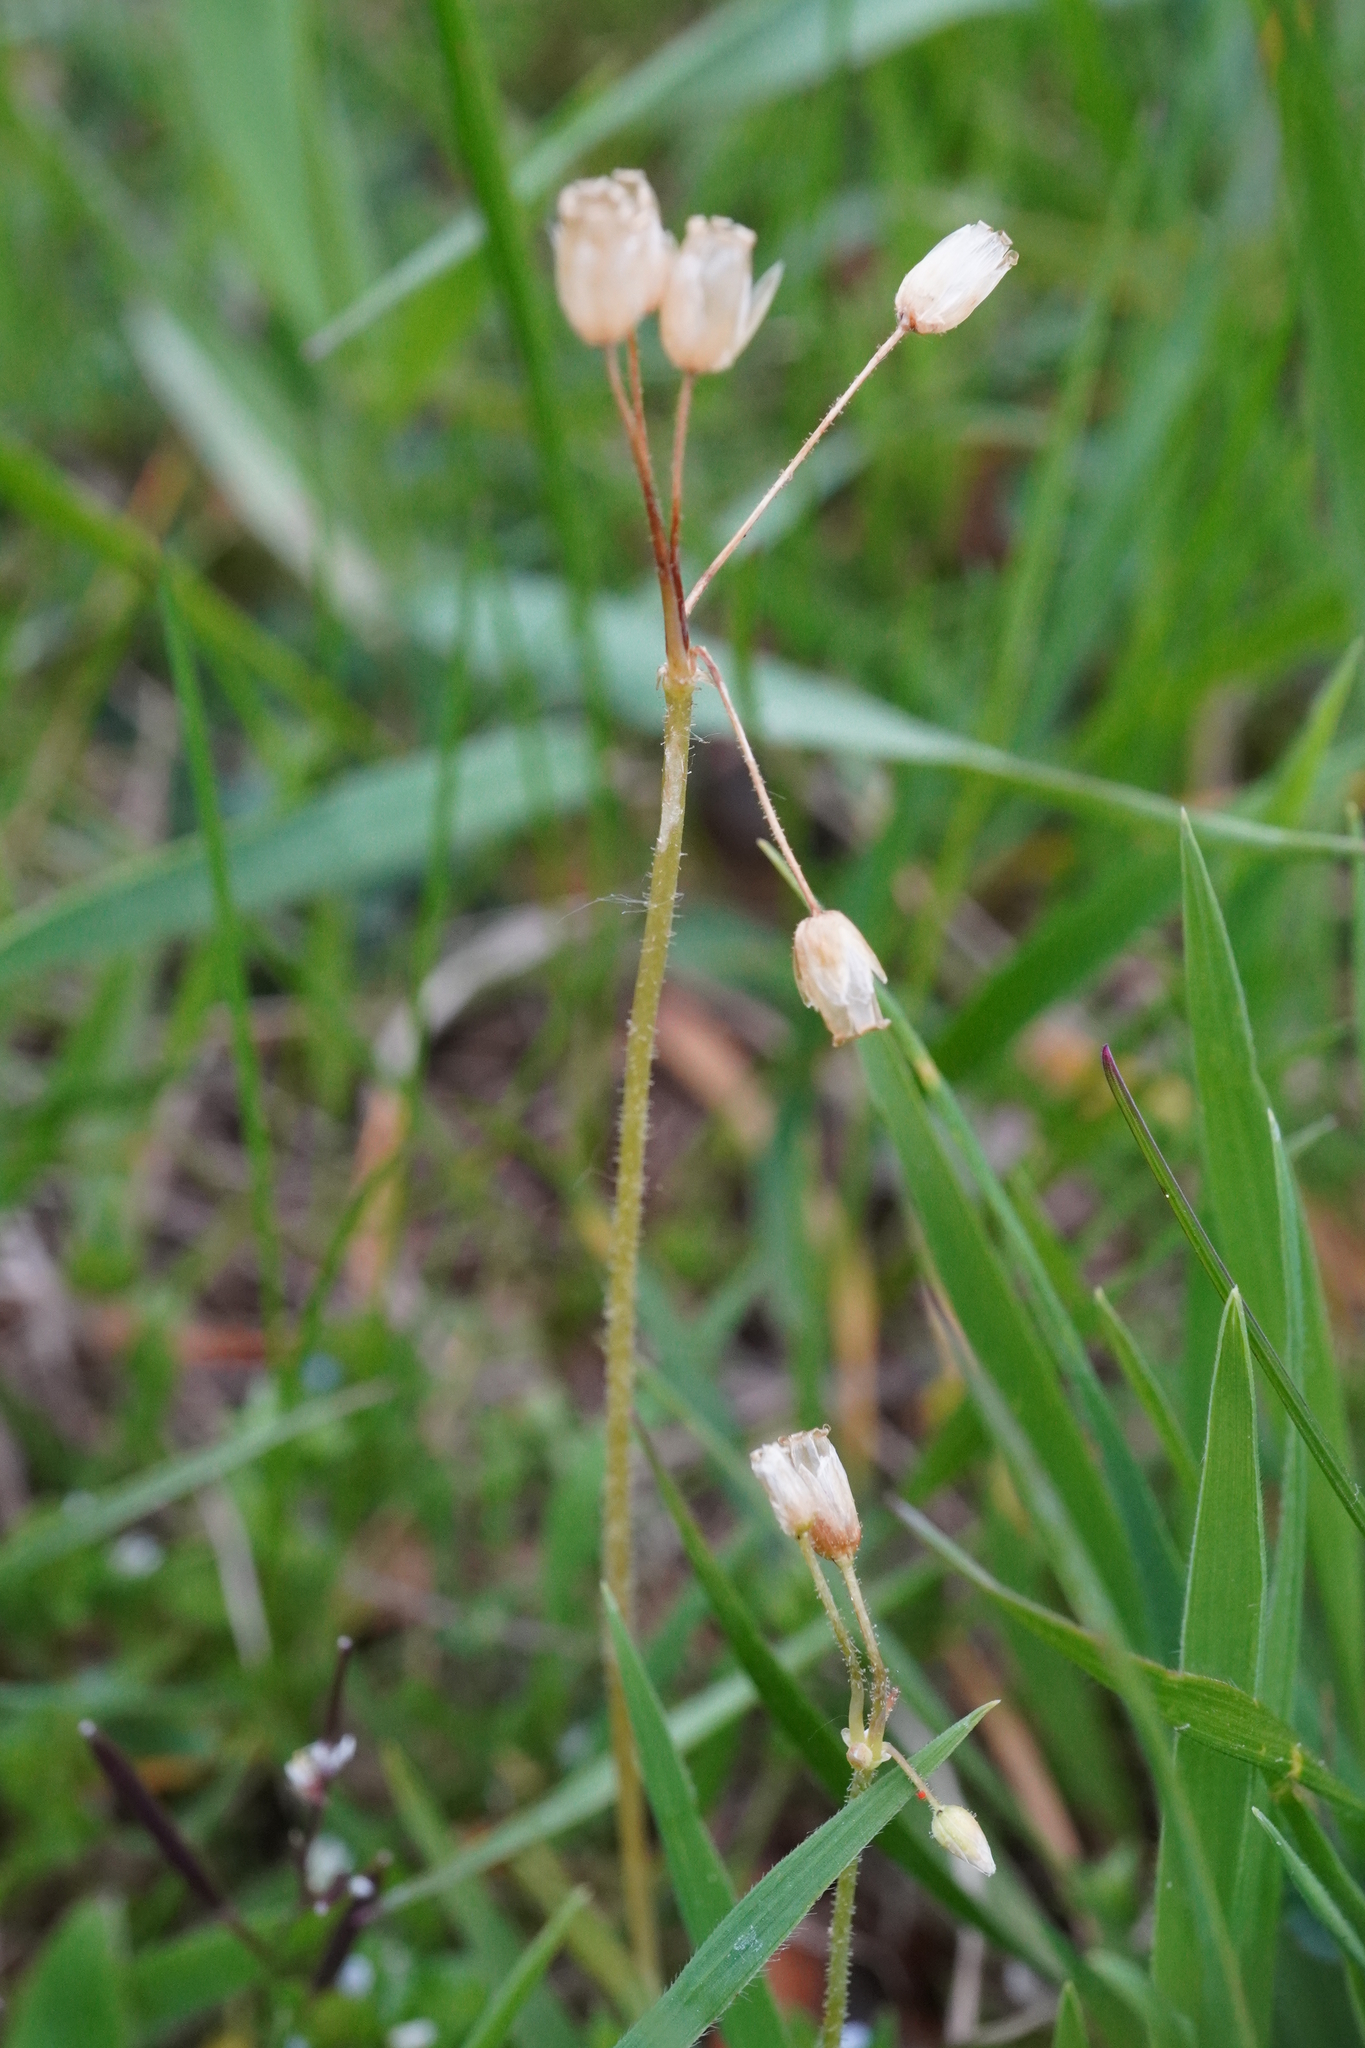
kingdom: Plantae
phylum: Tracheophyta
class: Magnoliopsida
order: Caryophyllales
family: Caryophyllaceae
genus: Holosteum
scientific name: Holosteum umbellatum
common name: Jagged chickweed
